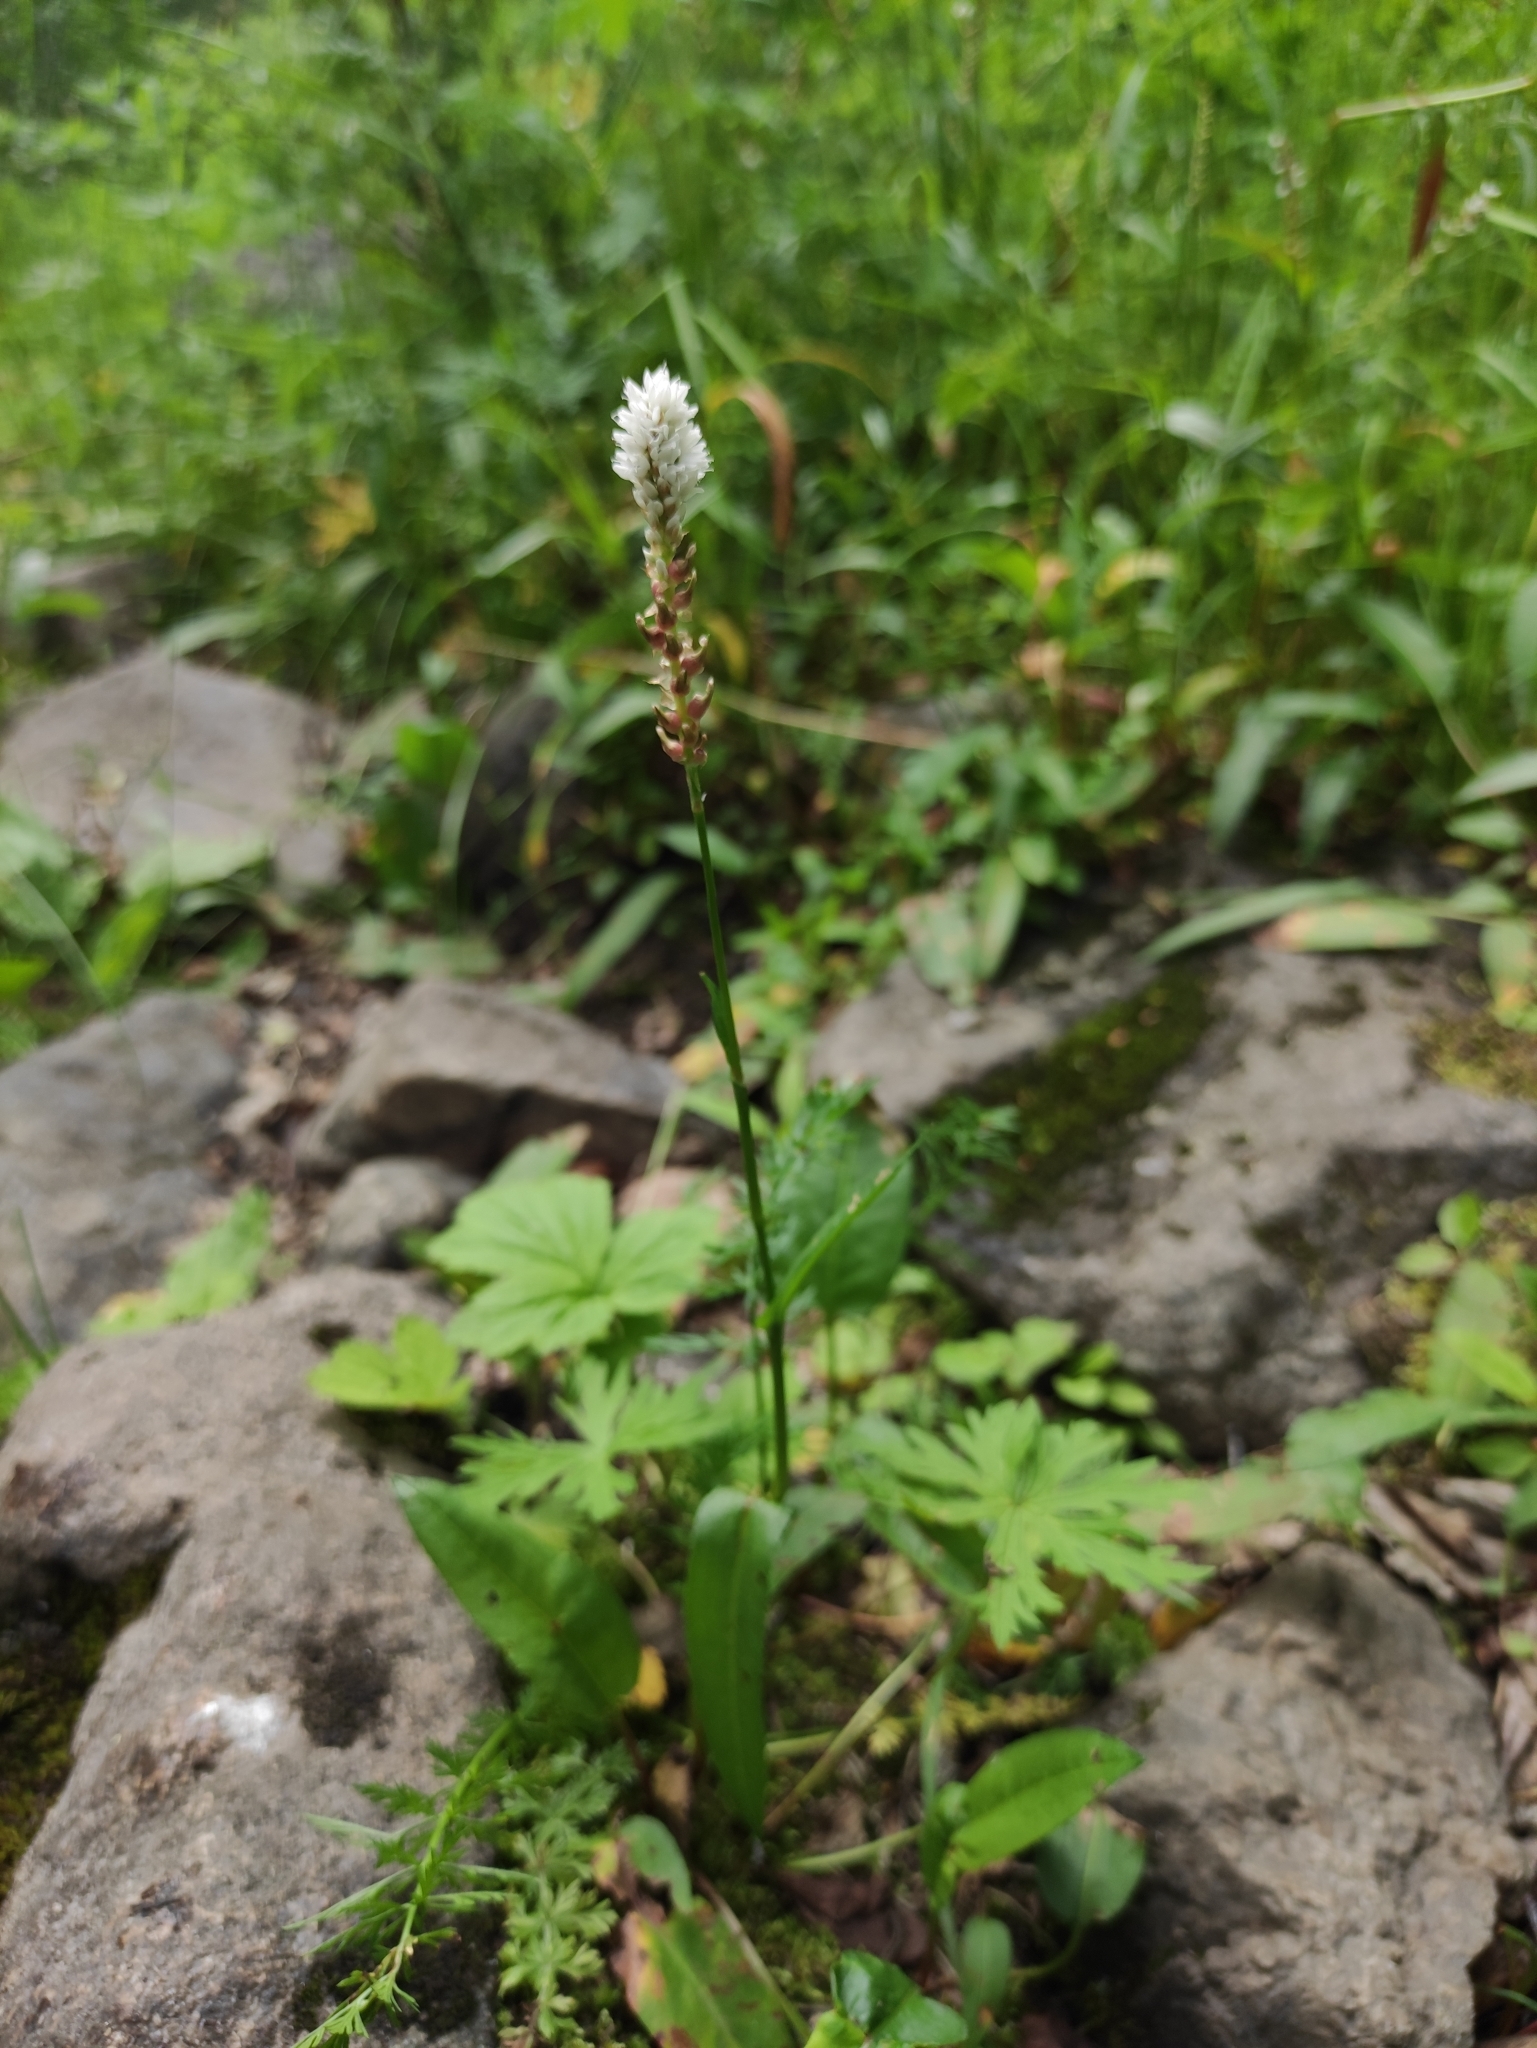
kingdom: Plantae
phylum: Tracheophyta
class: Magnoliopsida
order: Caryophyllales
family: Polygonaceae
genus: Bistorta
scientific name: Bistorta vivipara
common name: Alpine bistort
